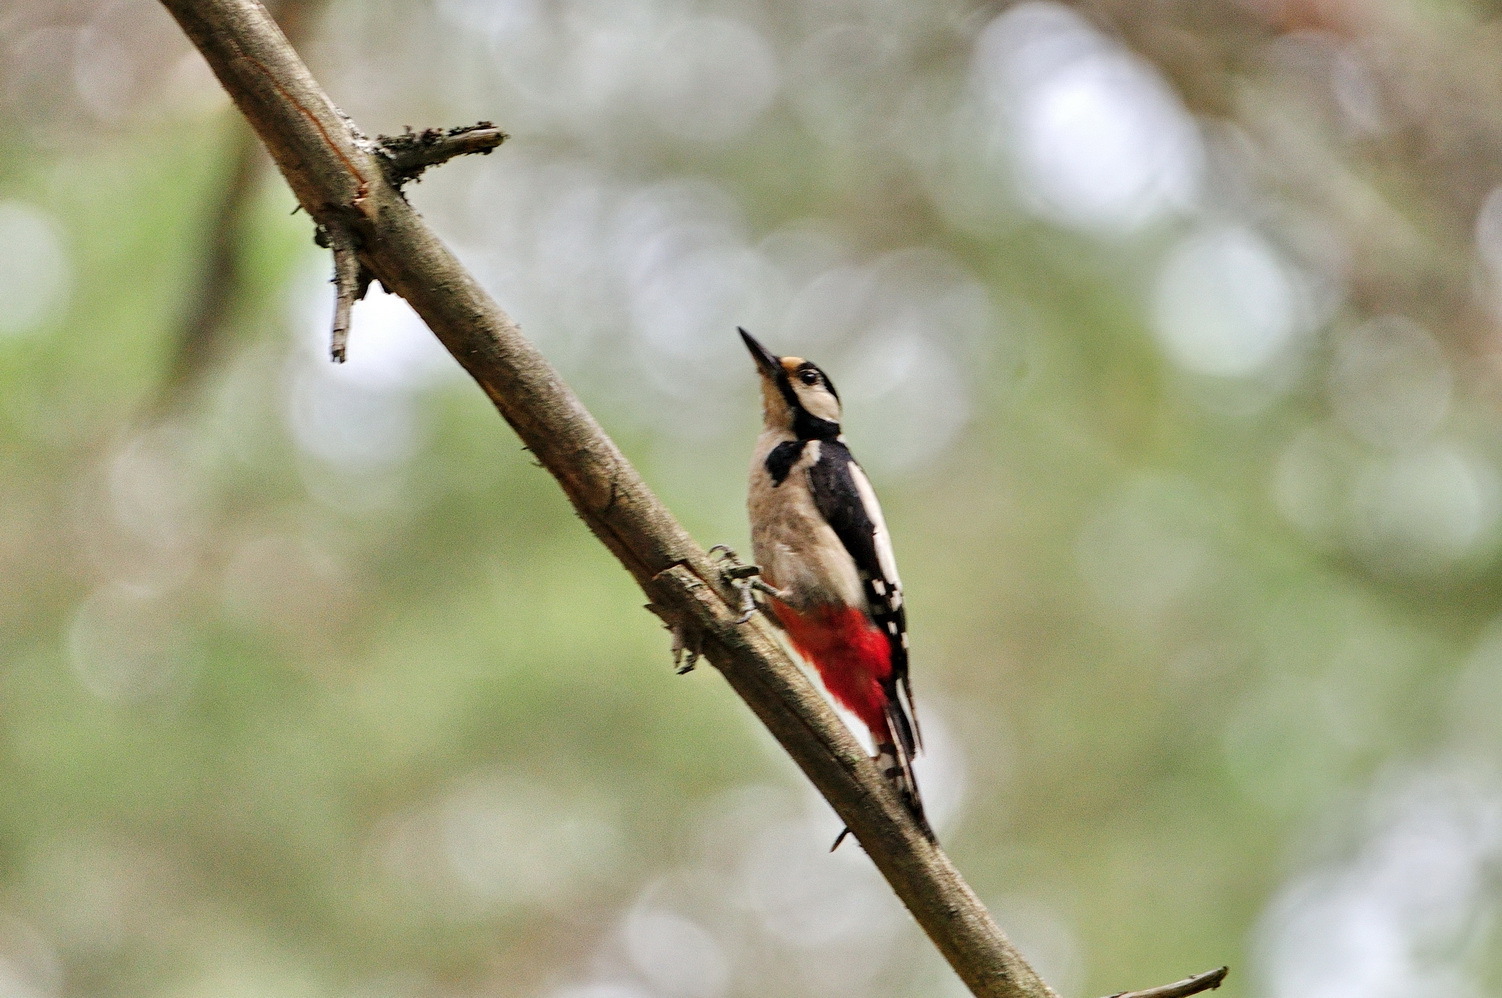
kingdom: Animalia
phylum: Chordata
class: Aves
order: Piciformes
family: Picidae
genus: Dendrocopos
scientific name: Dendrocopos major
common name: Great spotted woodpecker
